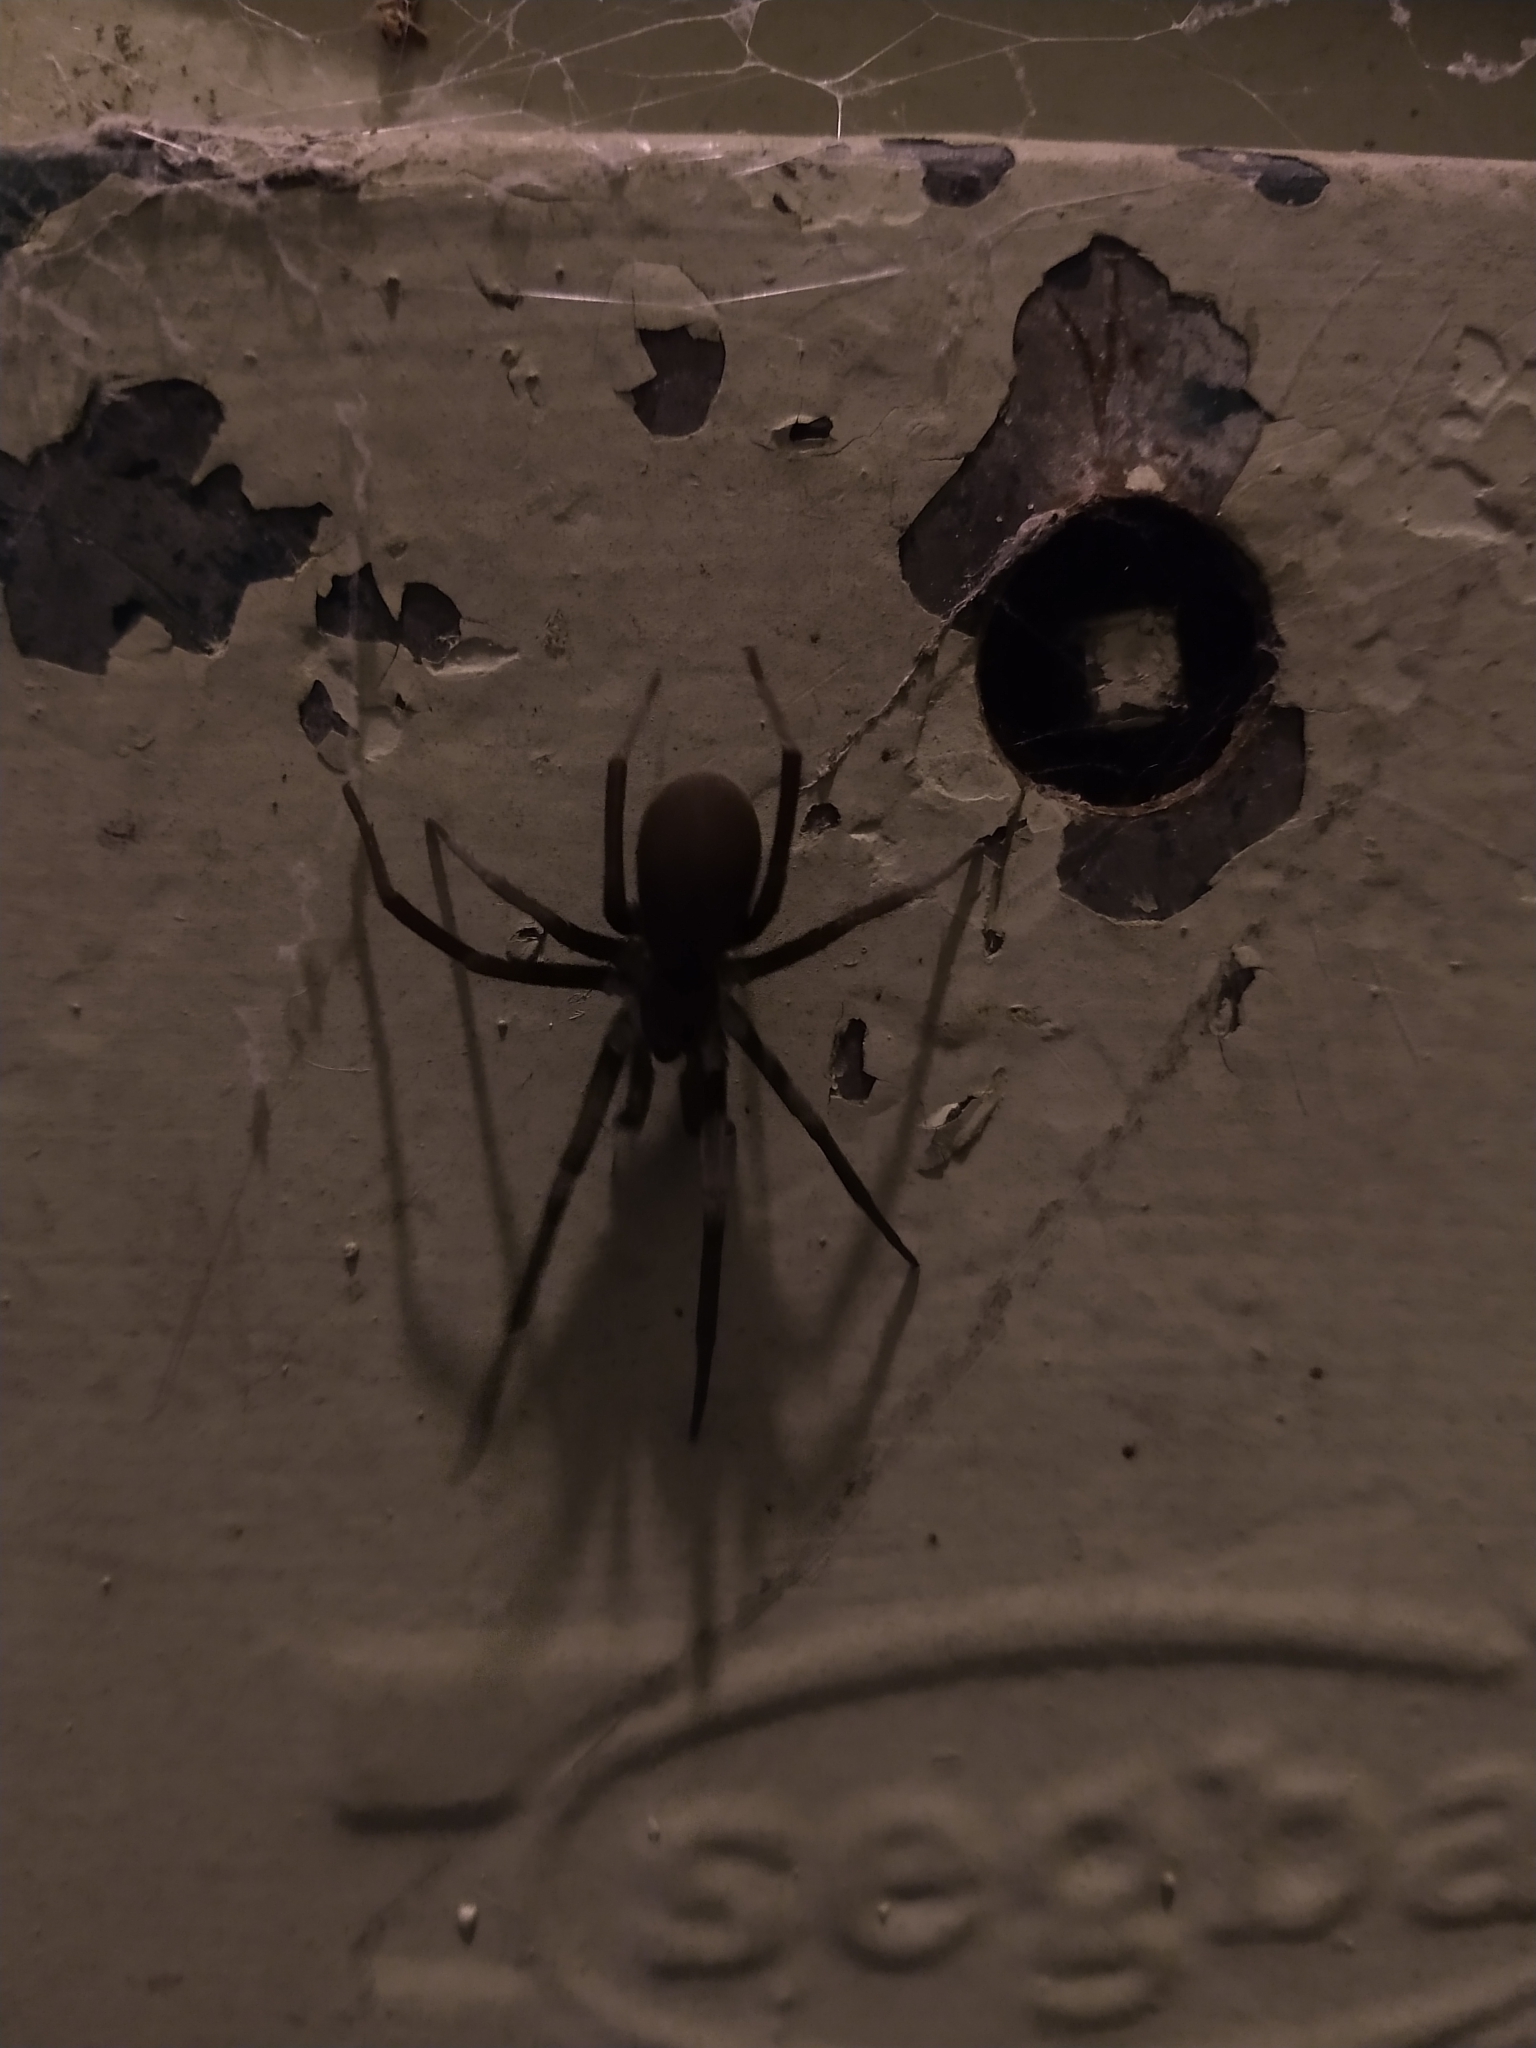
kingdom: Animalia
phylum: Arthropoda
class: Arachnida
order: Araneae
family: Filistatidae
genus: Kukulcania
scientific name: Kukulcania hibernalis
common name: Crevice weaver
